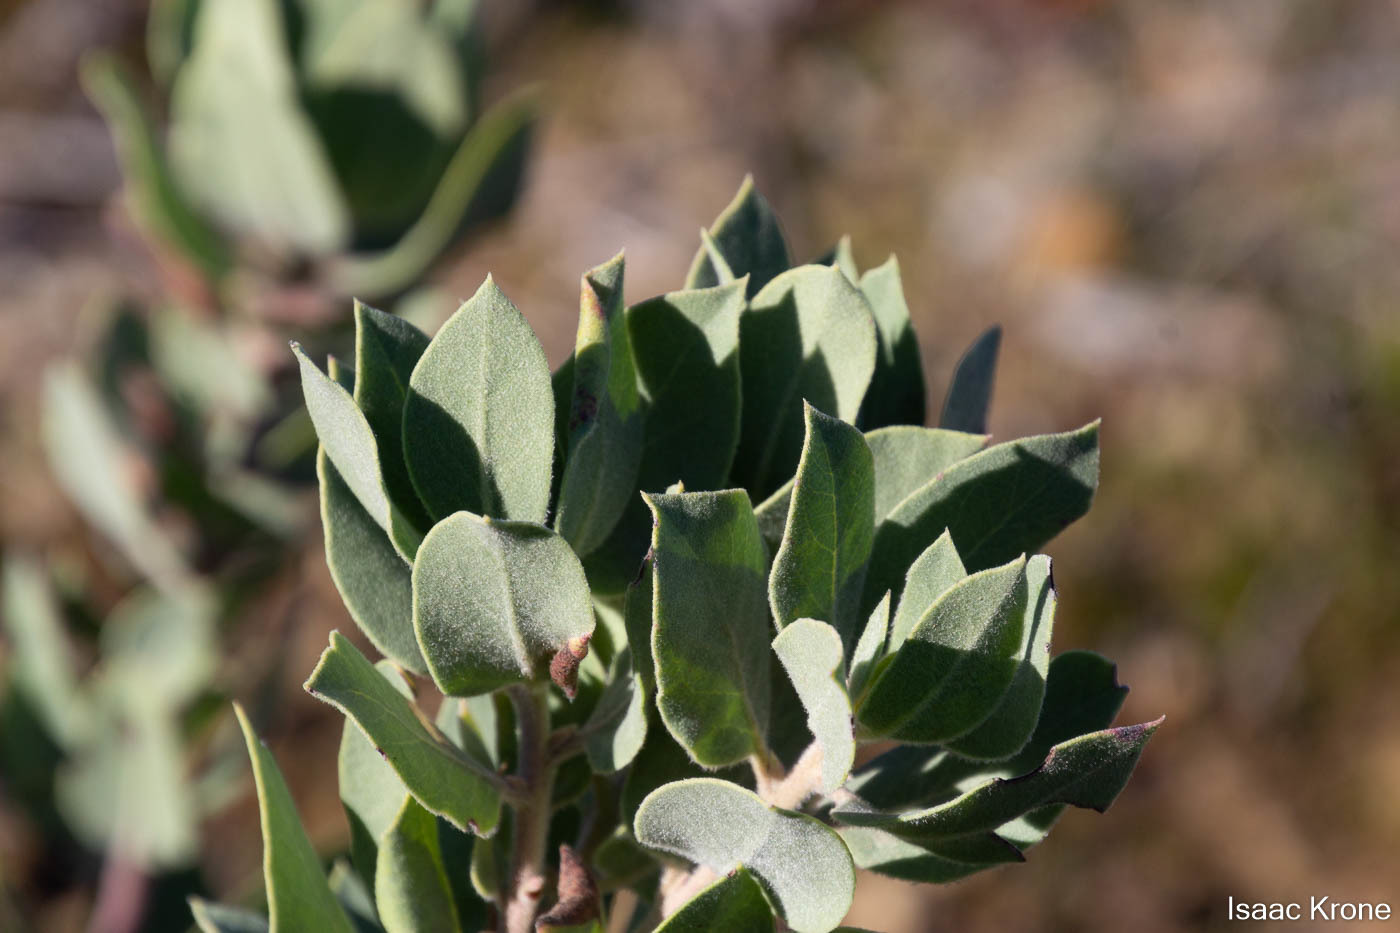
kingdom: Plantae
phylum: Tracheophyta
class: Magnoliopsida
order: Ericales
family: Ericaceae
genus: Arctostaphylos
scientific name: Arctostaphylos glandulosa
